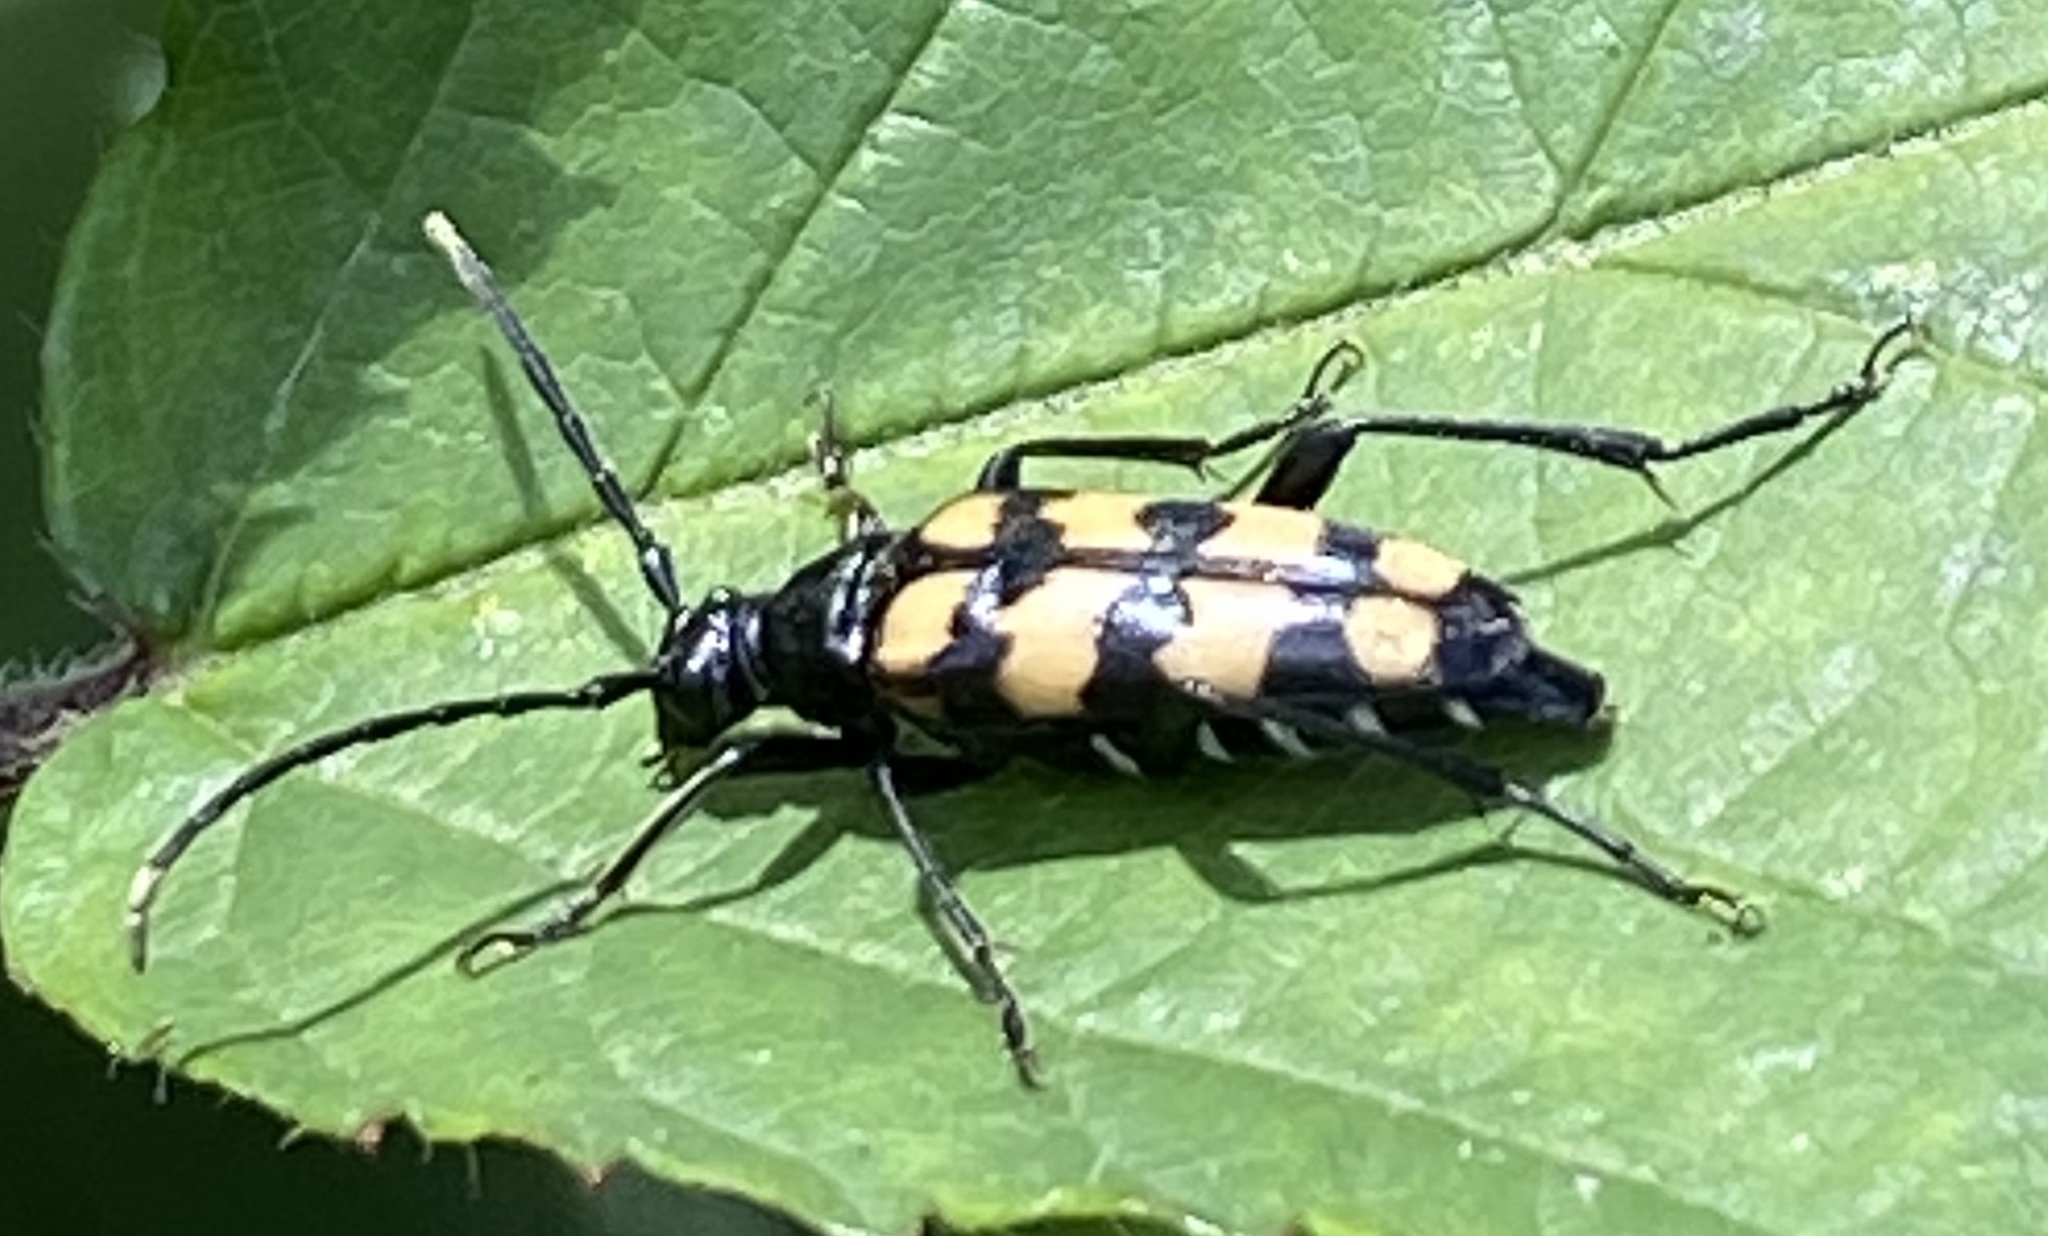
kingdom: Animalia
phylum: Arthropoda
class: Insecta
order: Coleoptera
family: Cerambycidae
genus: Leptura
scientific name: Leptura quadrifasciata
